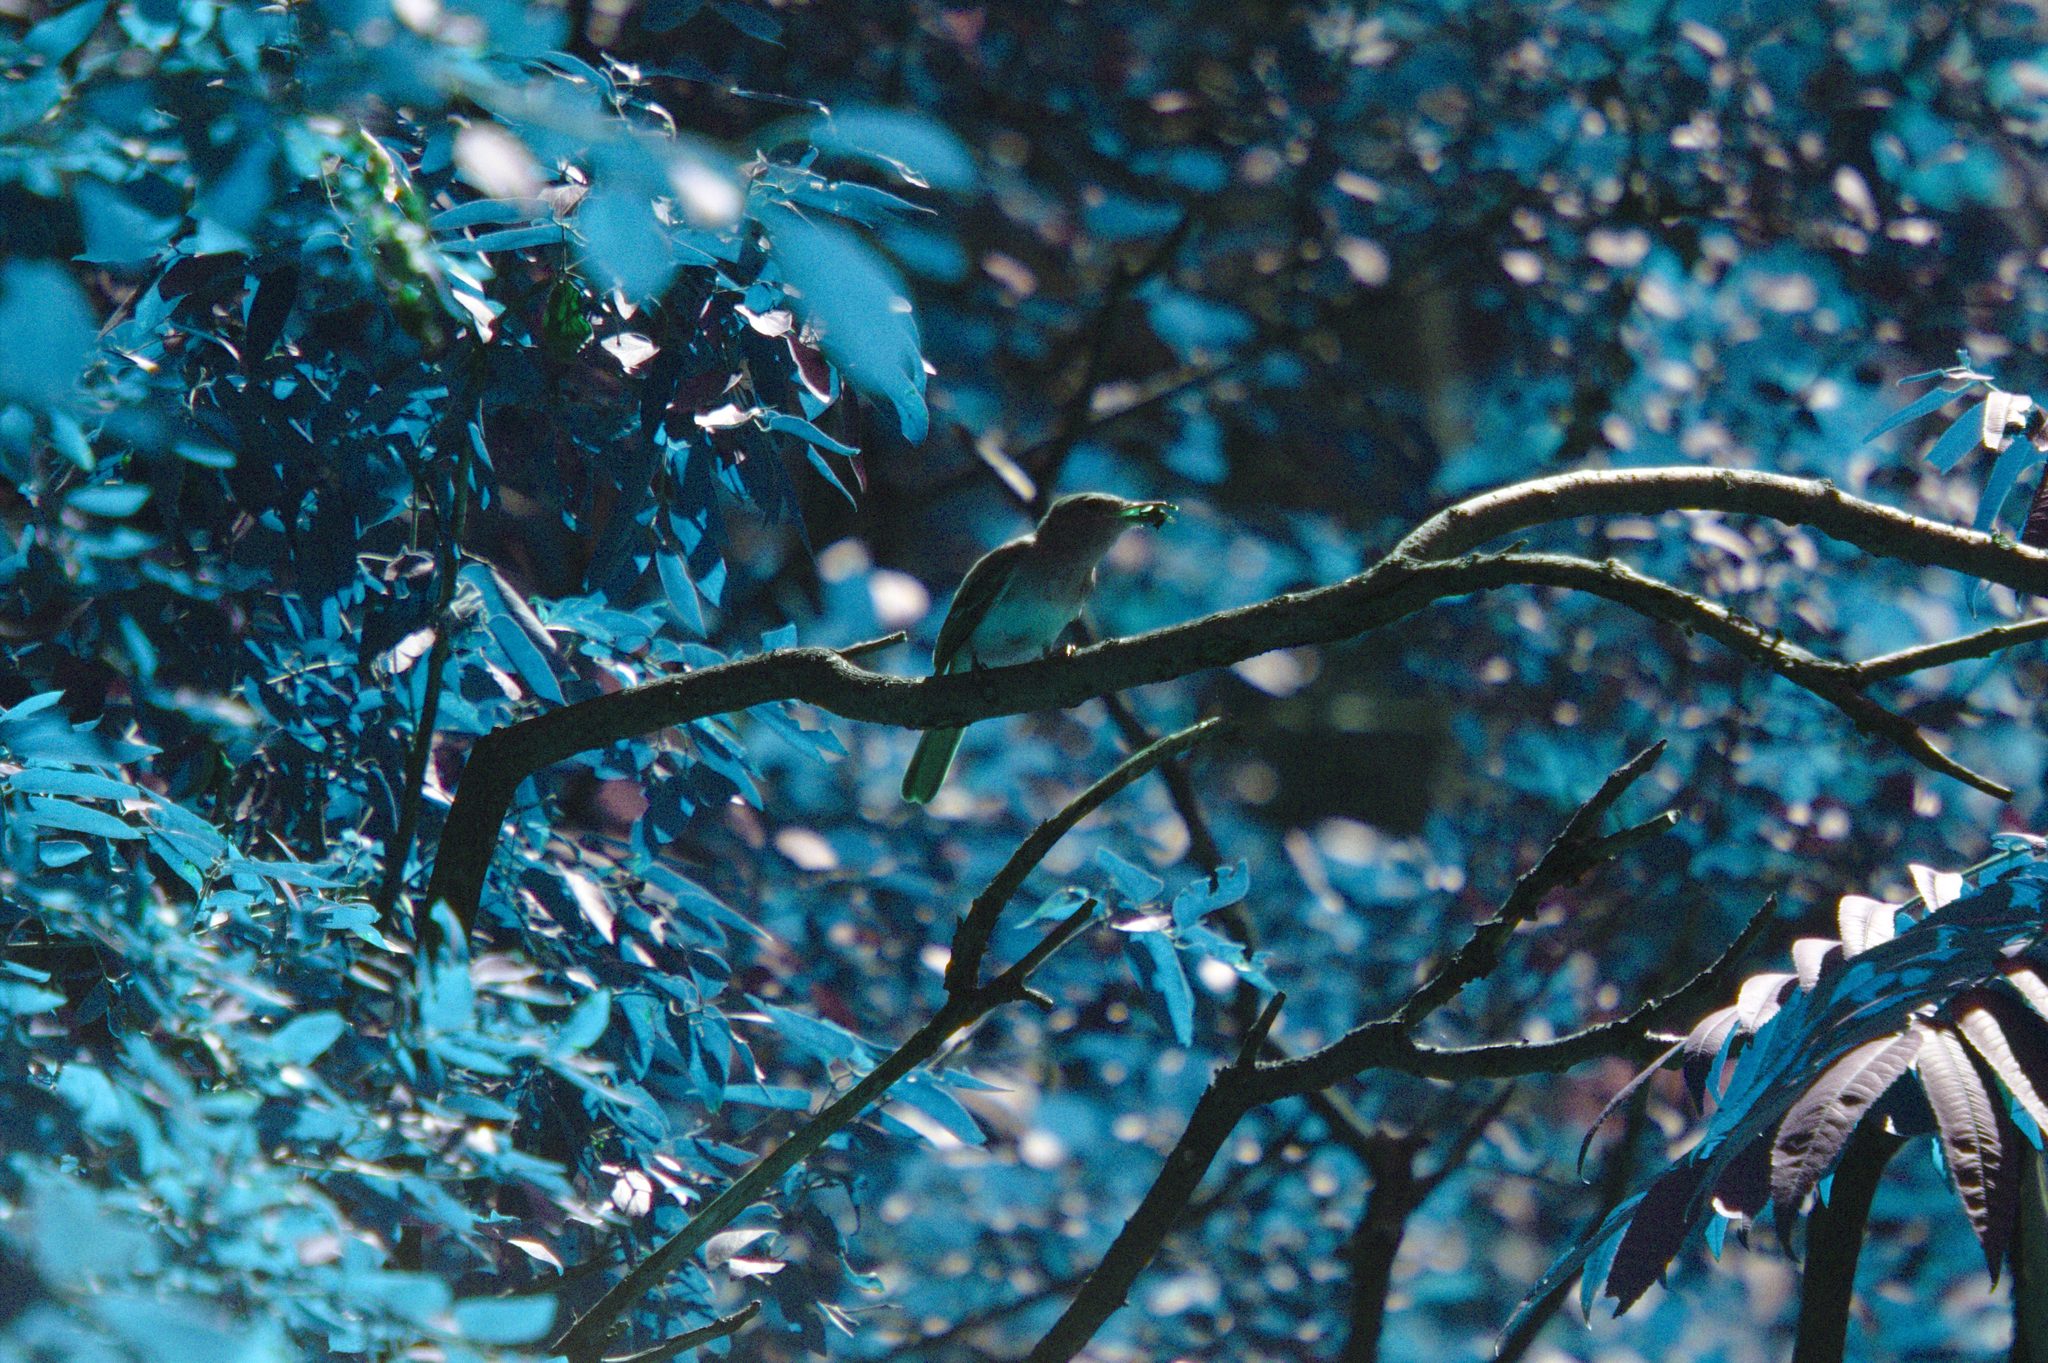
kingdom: Animalia
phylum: Chordata
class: Aves
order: Passeriformes
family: Tyrannidae
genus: Myiarchus
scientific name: Myiarchus crinitus
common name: Great crested flycatcher
